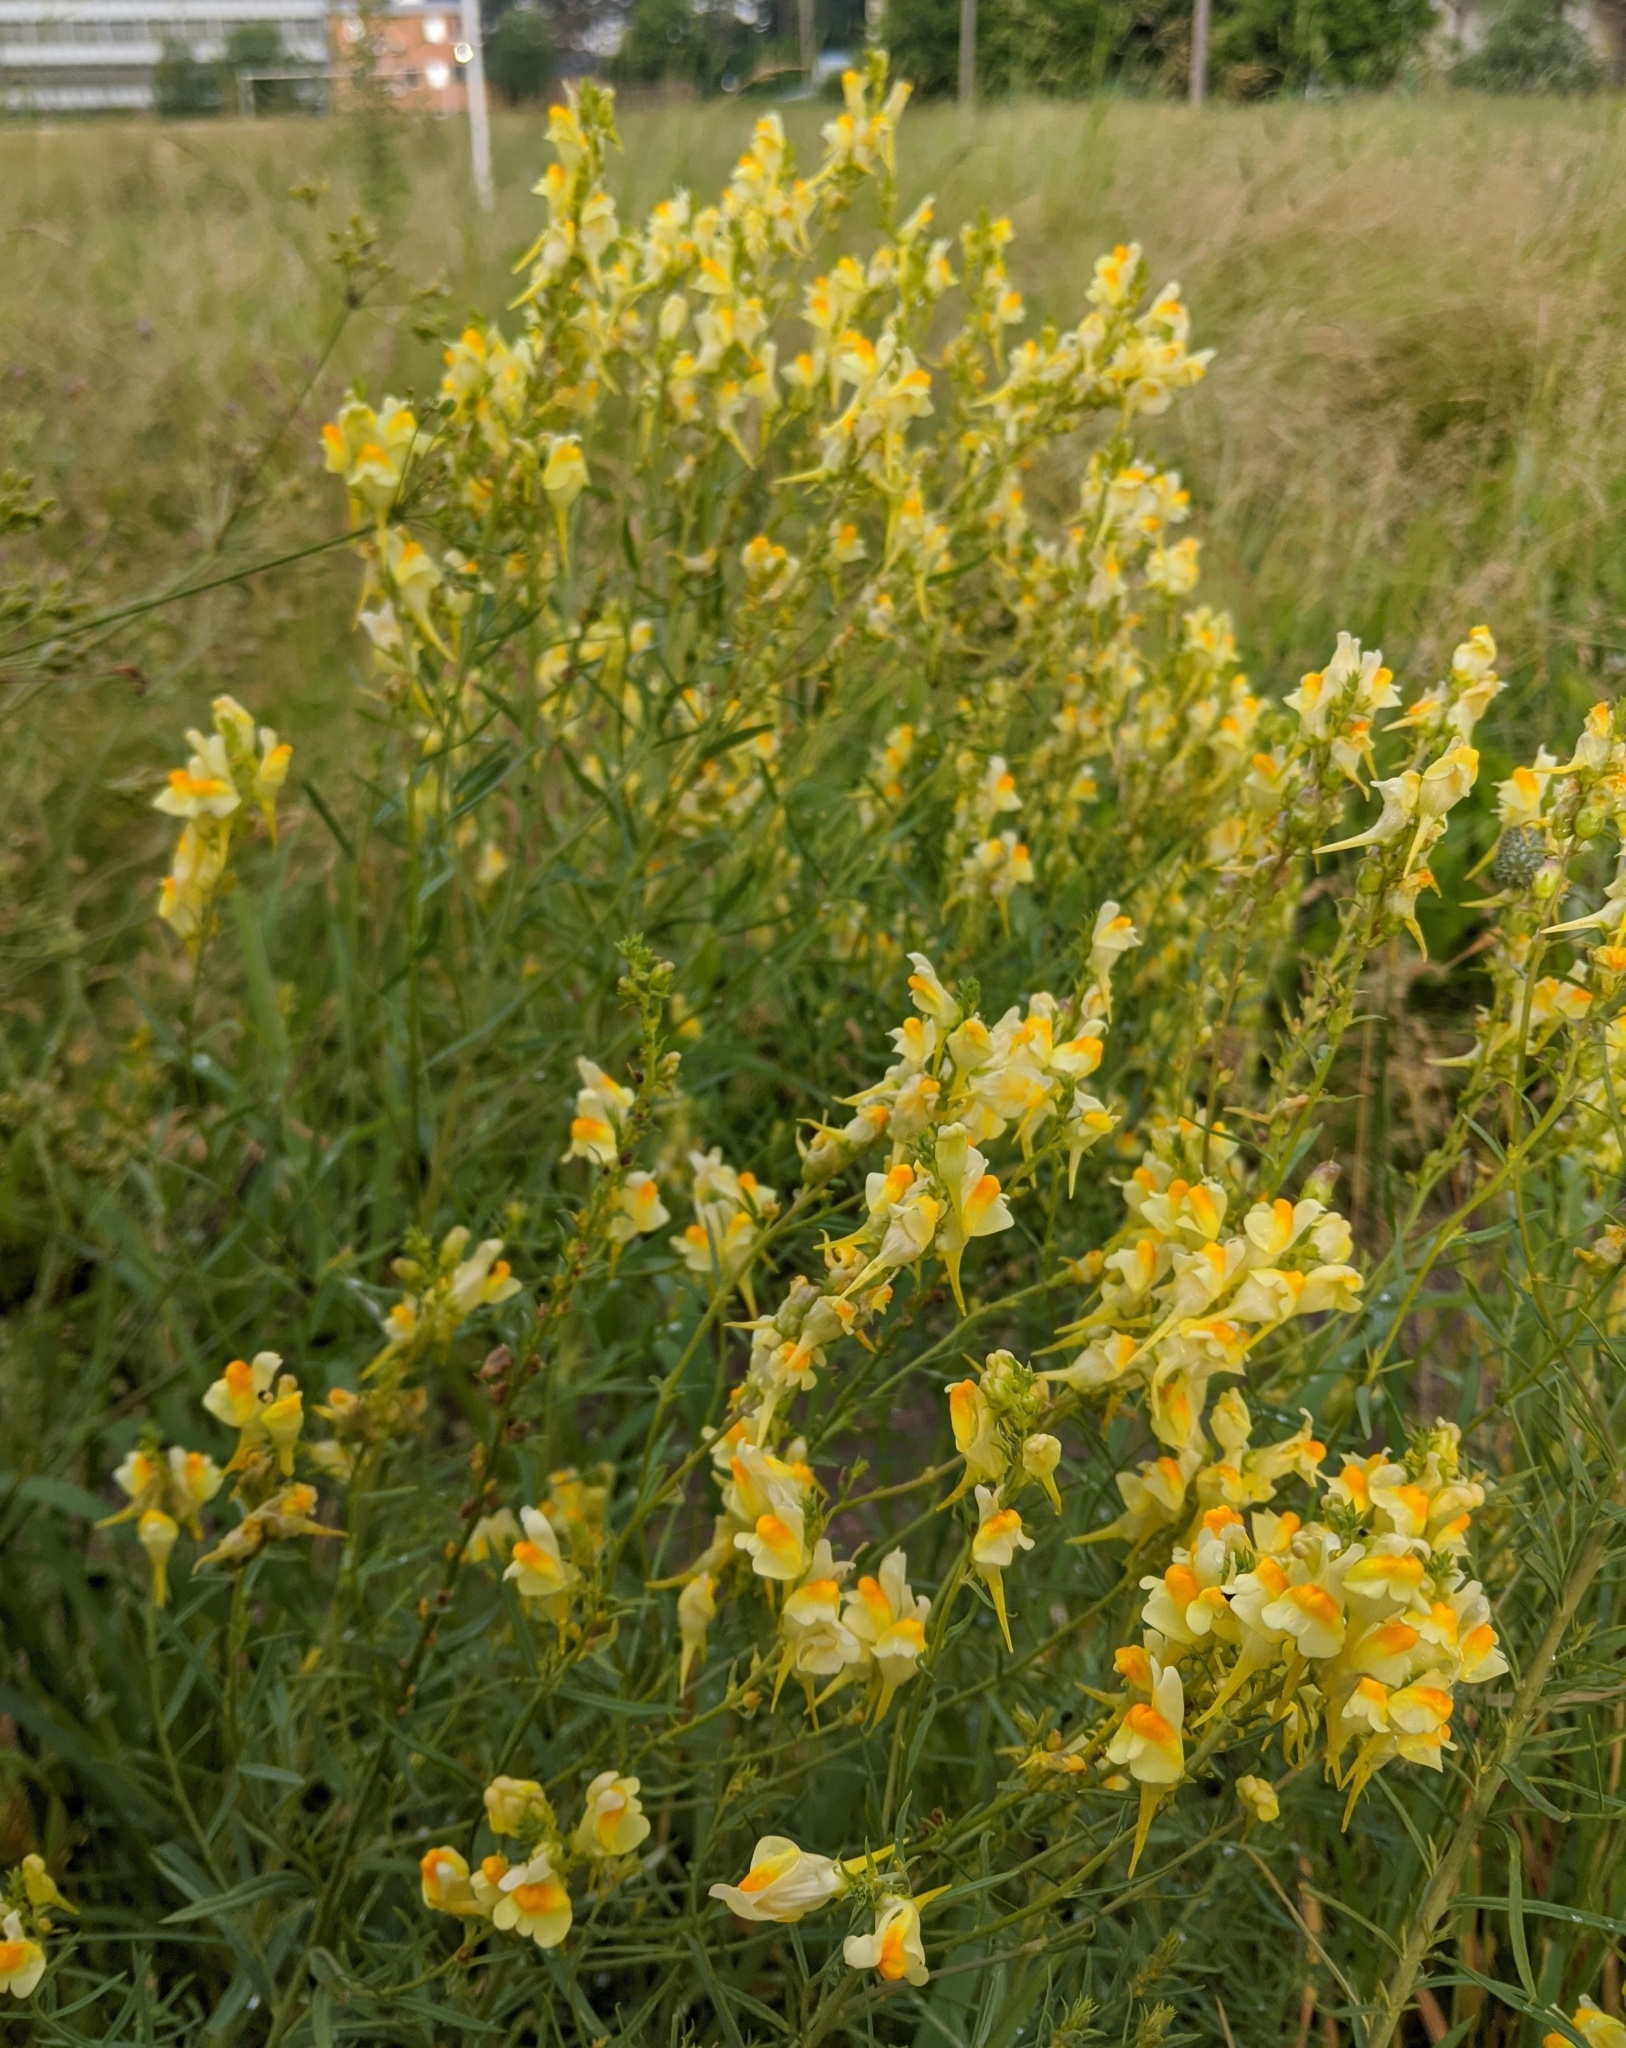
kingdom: Plantae
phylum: Tracheophyta
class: Magnoliopsida
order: Lamiales
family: Plantaginaceae
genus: Linaria
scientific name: Linaria vulgaris
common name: Butter and eggs
